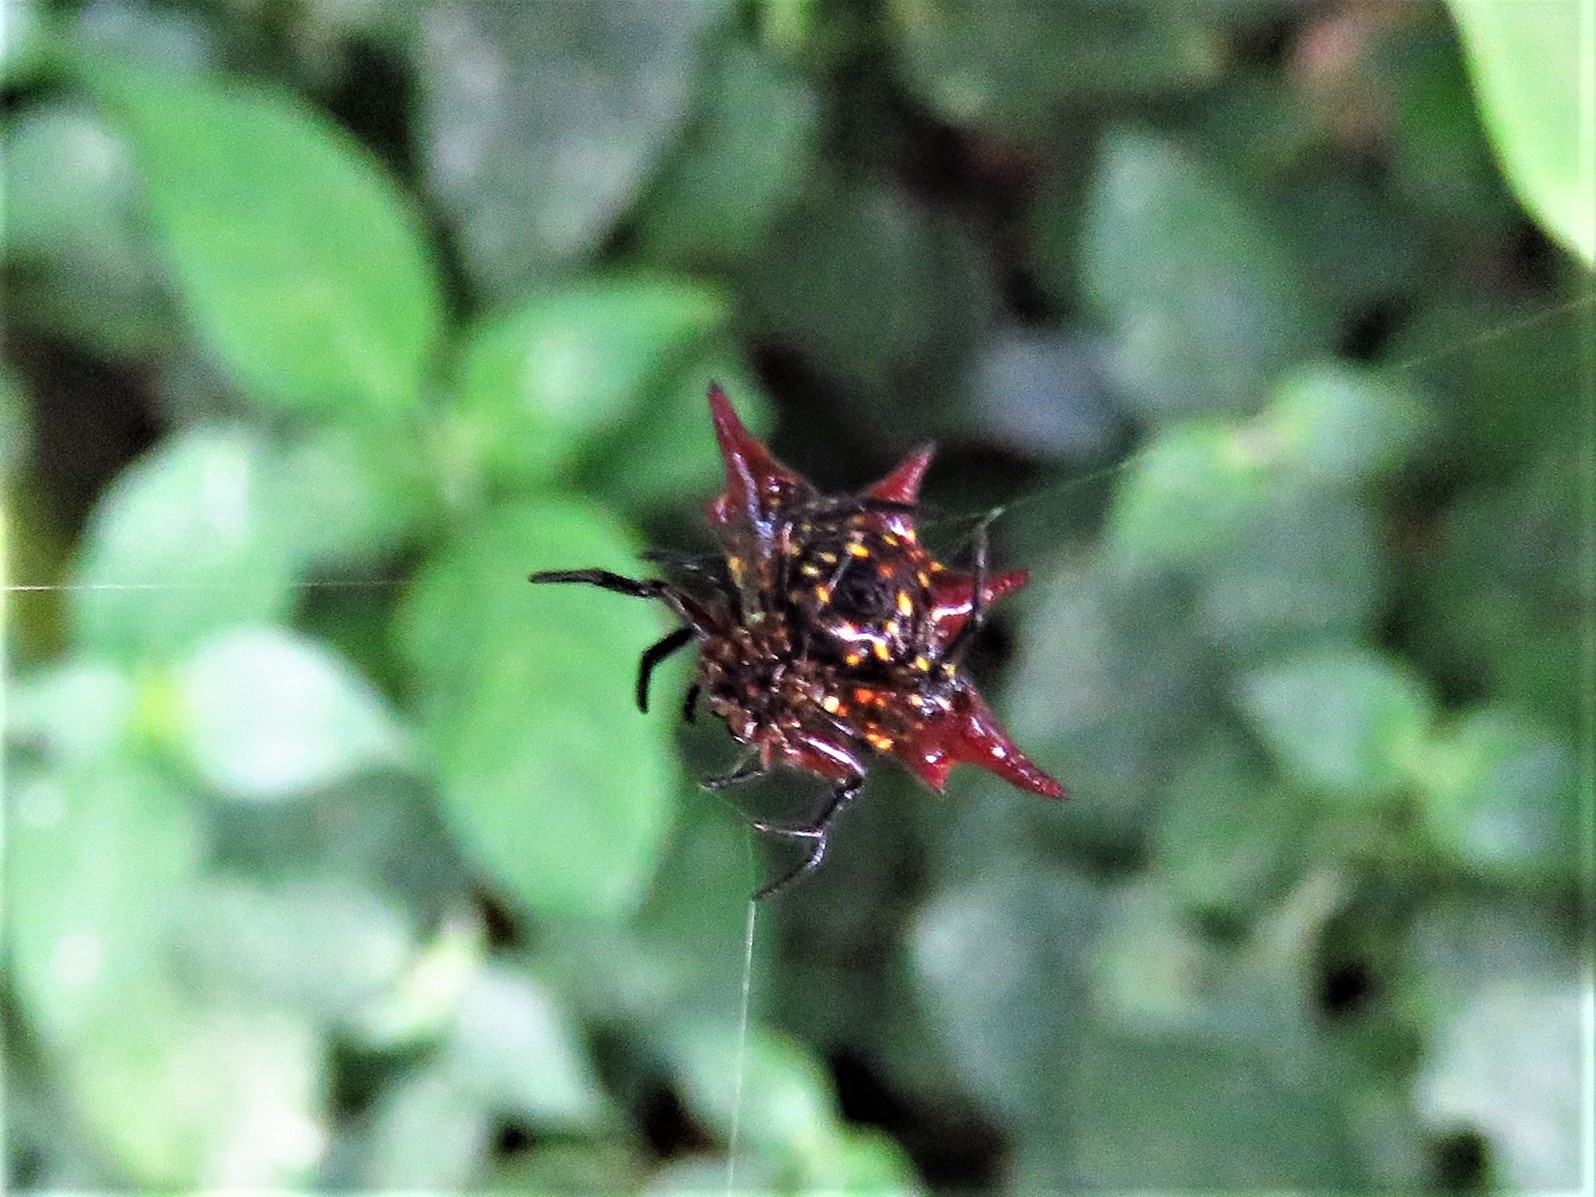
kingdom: Animalia
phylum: Arthropoda
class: Arachnida
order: Araneae
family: Araneidae
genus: Gasteracantha
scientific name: Gasteracantha sanguinolenta
